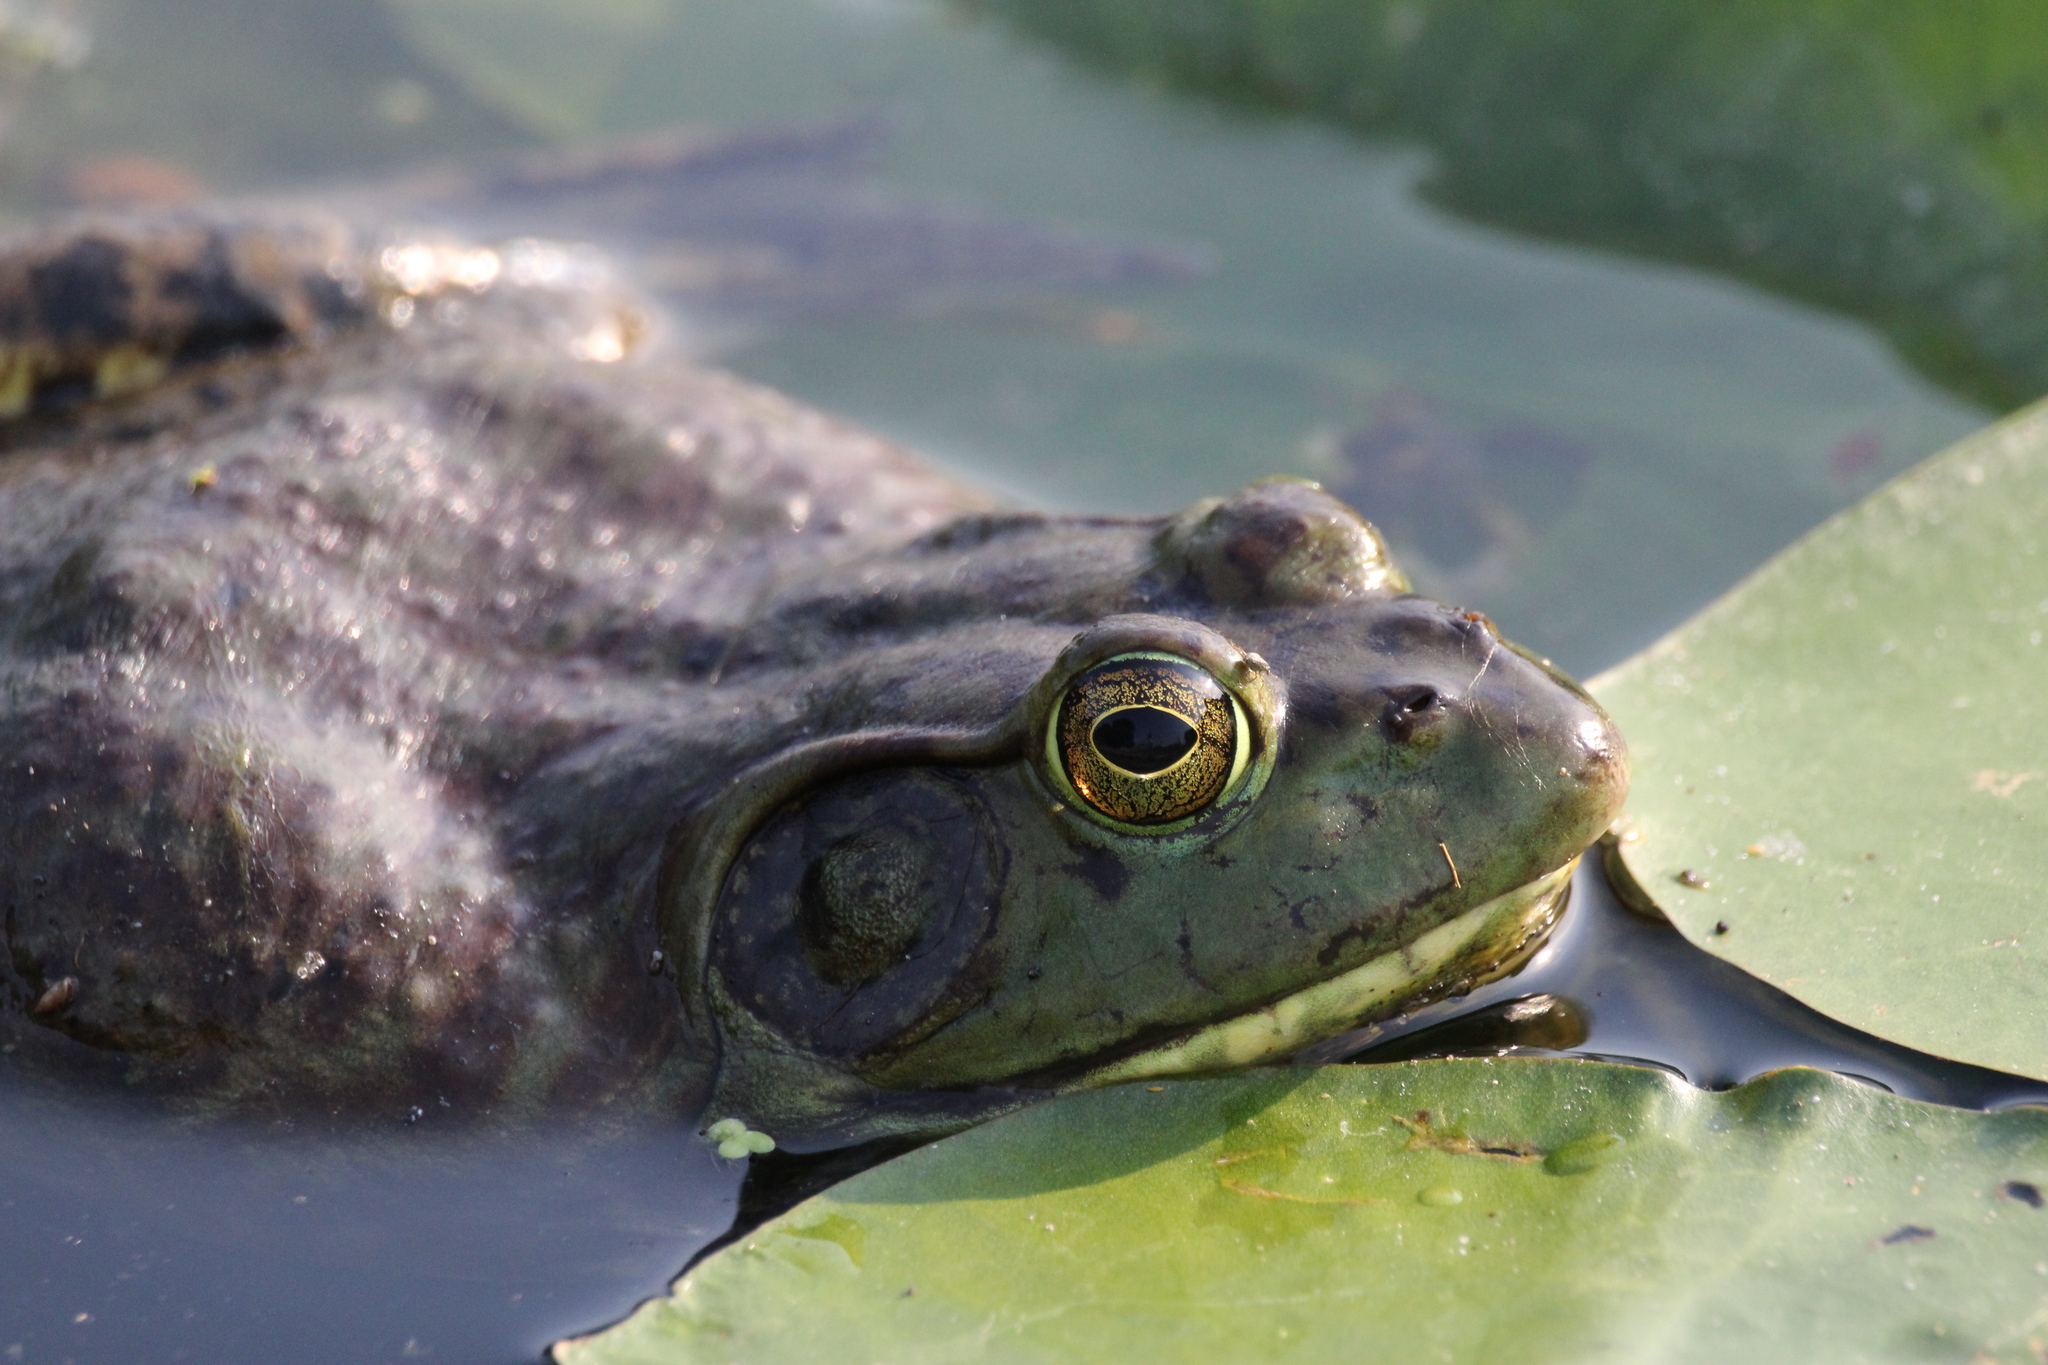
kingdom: Animalia
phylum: Chordata
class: Amphibia
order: Anura
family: Ranidae
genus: Lithobates
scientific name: Lithobates catesbeianus
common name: American bullfrog
